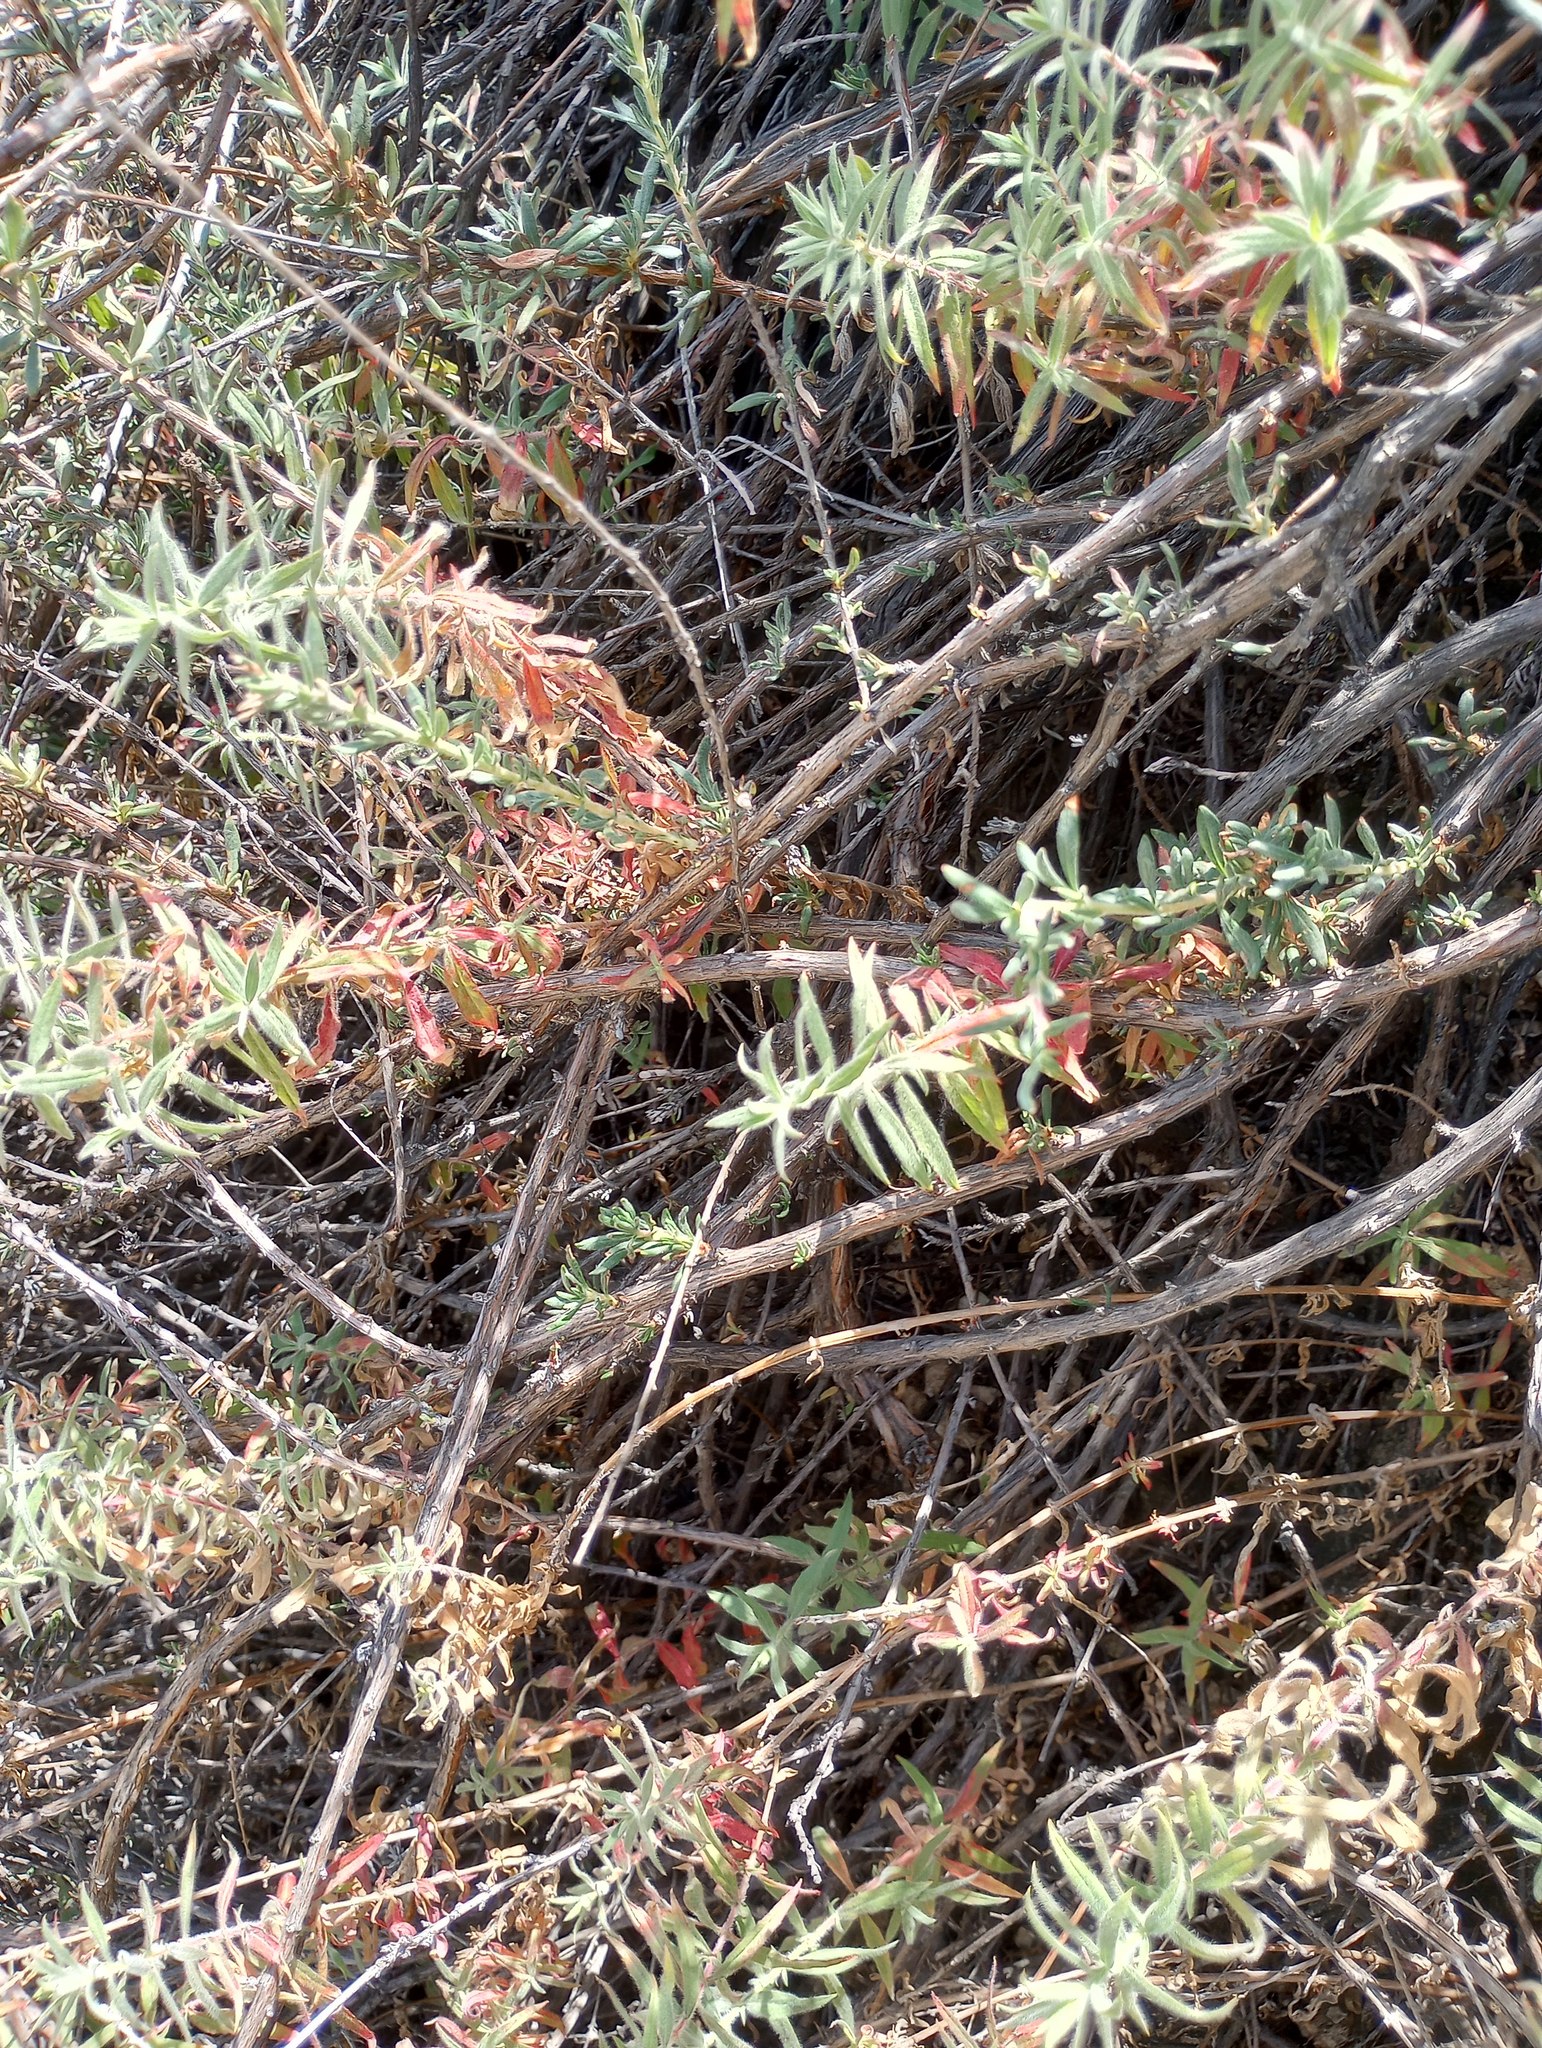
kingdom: Plantae
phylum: Tracheophyta
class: Magnoliopsida
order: Myrtales
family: Onagraceae
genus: Epilobium
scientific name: Epilobium canum
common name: California-fuchsia
